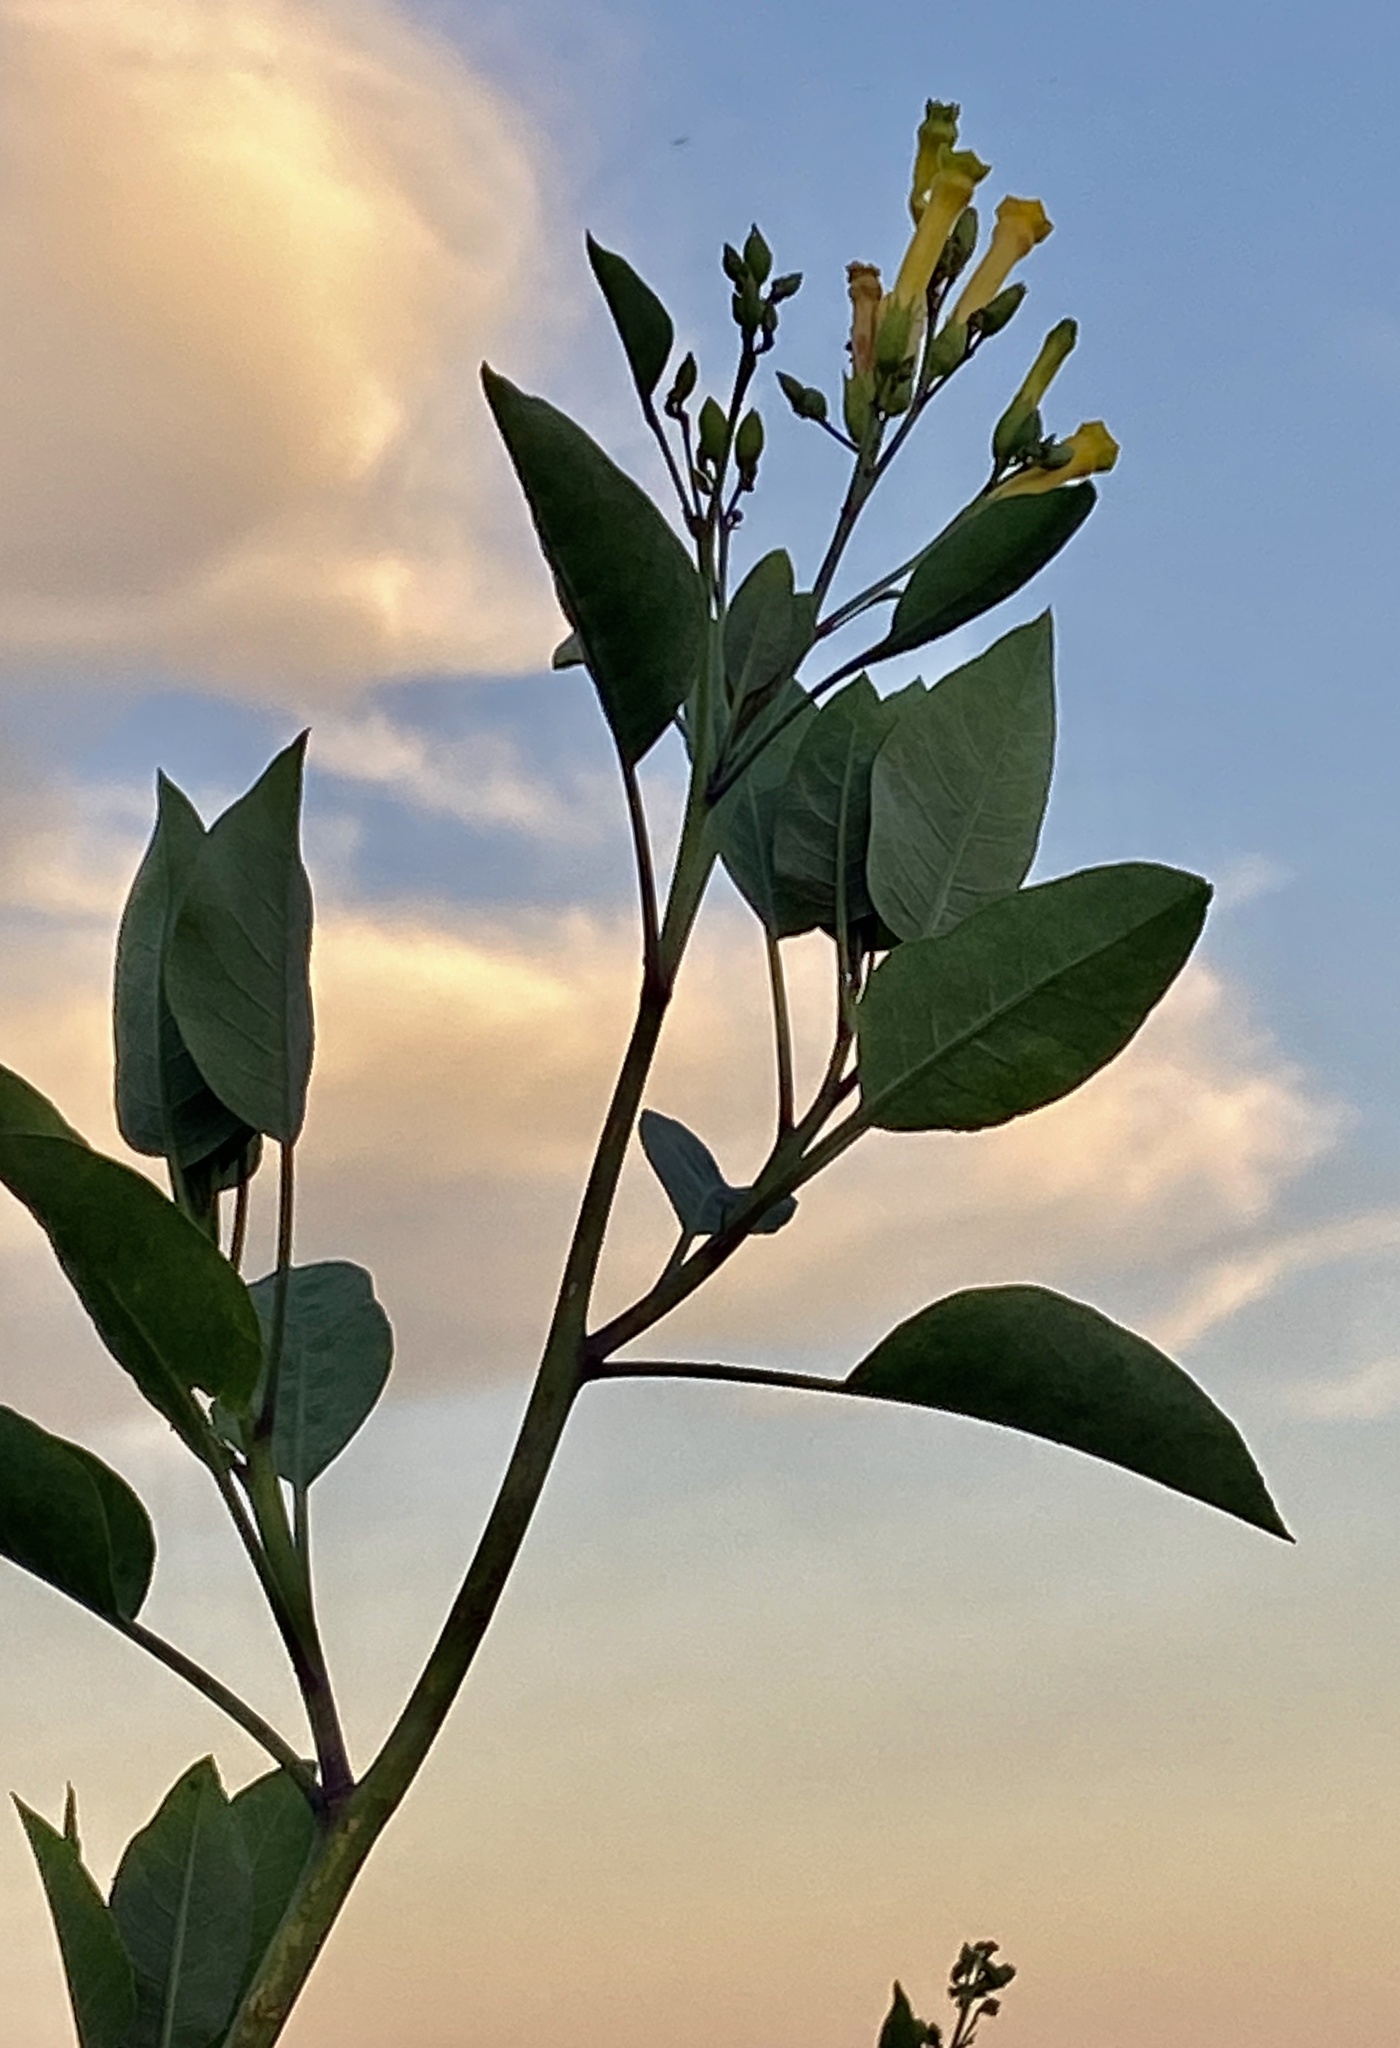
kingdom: Plantae
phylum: Tracheophyta
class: Magnoliopsida
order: Solanales
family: Solanaceae
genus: Nicotiana
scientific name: Nicotiana glauca
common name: Tree tobacco
